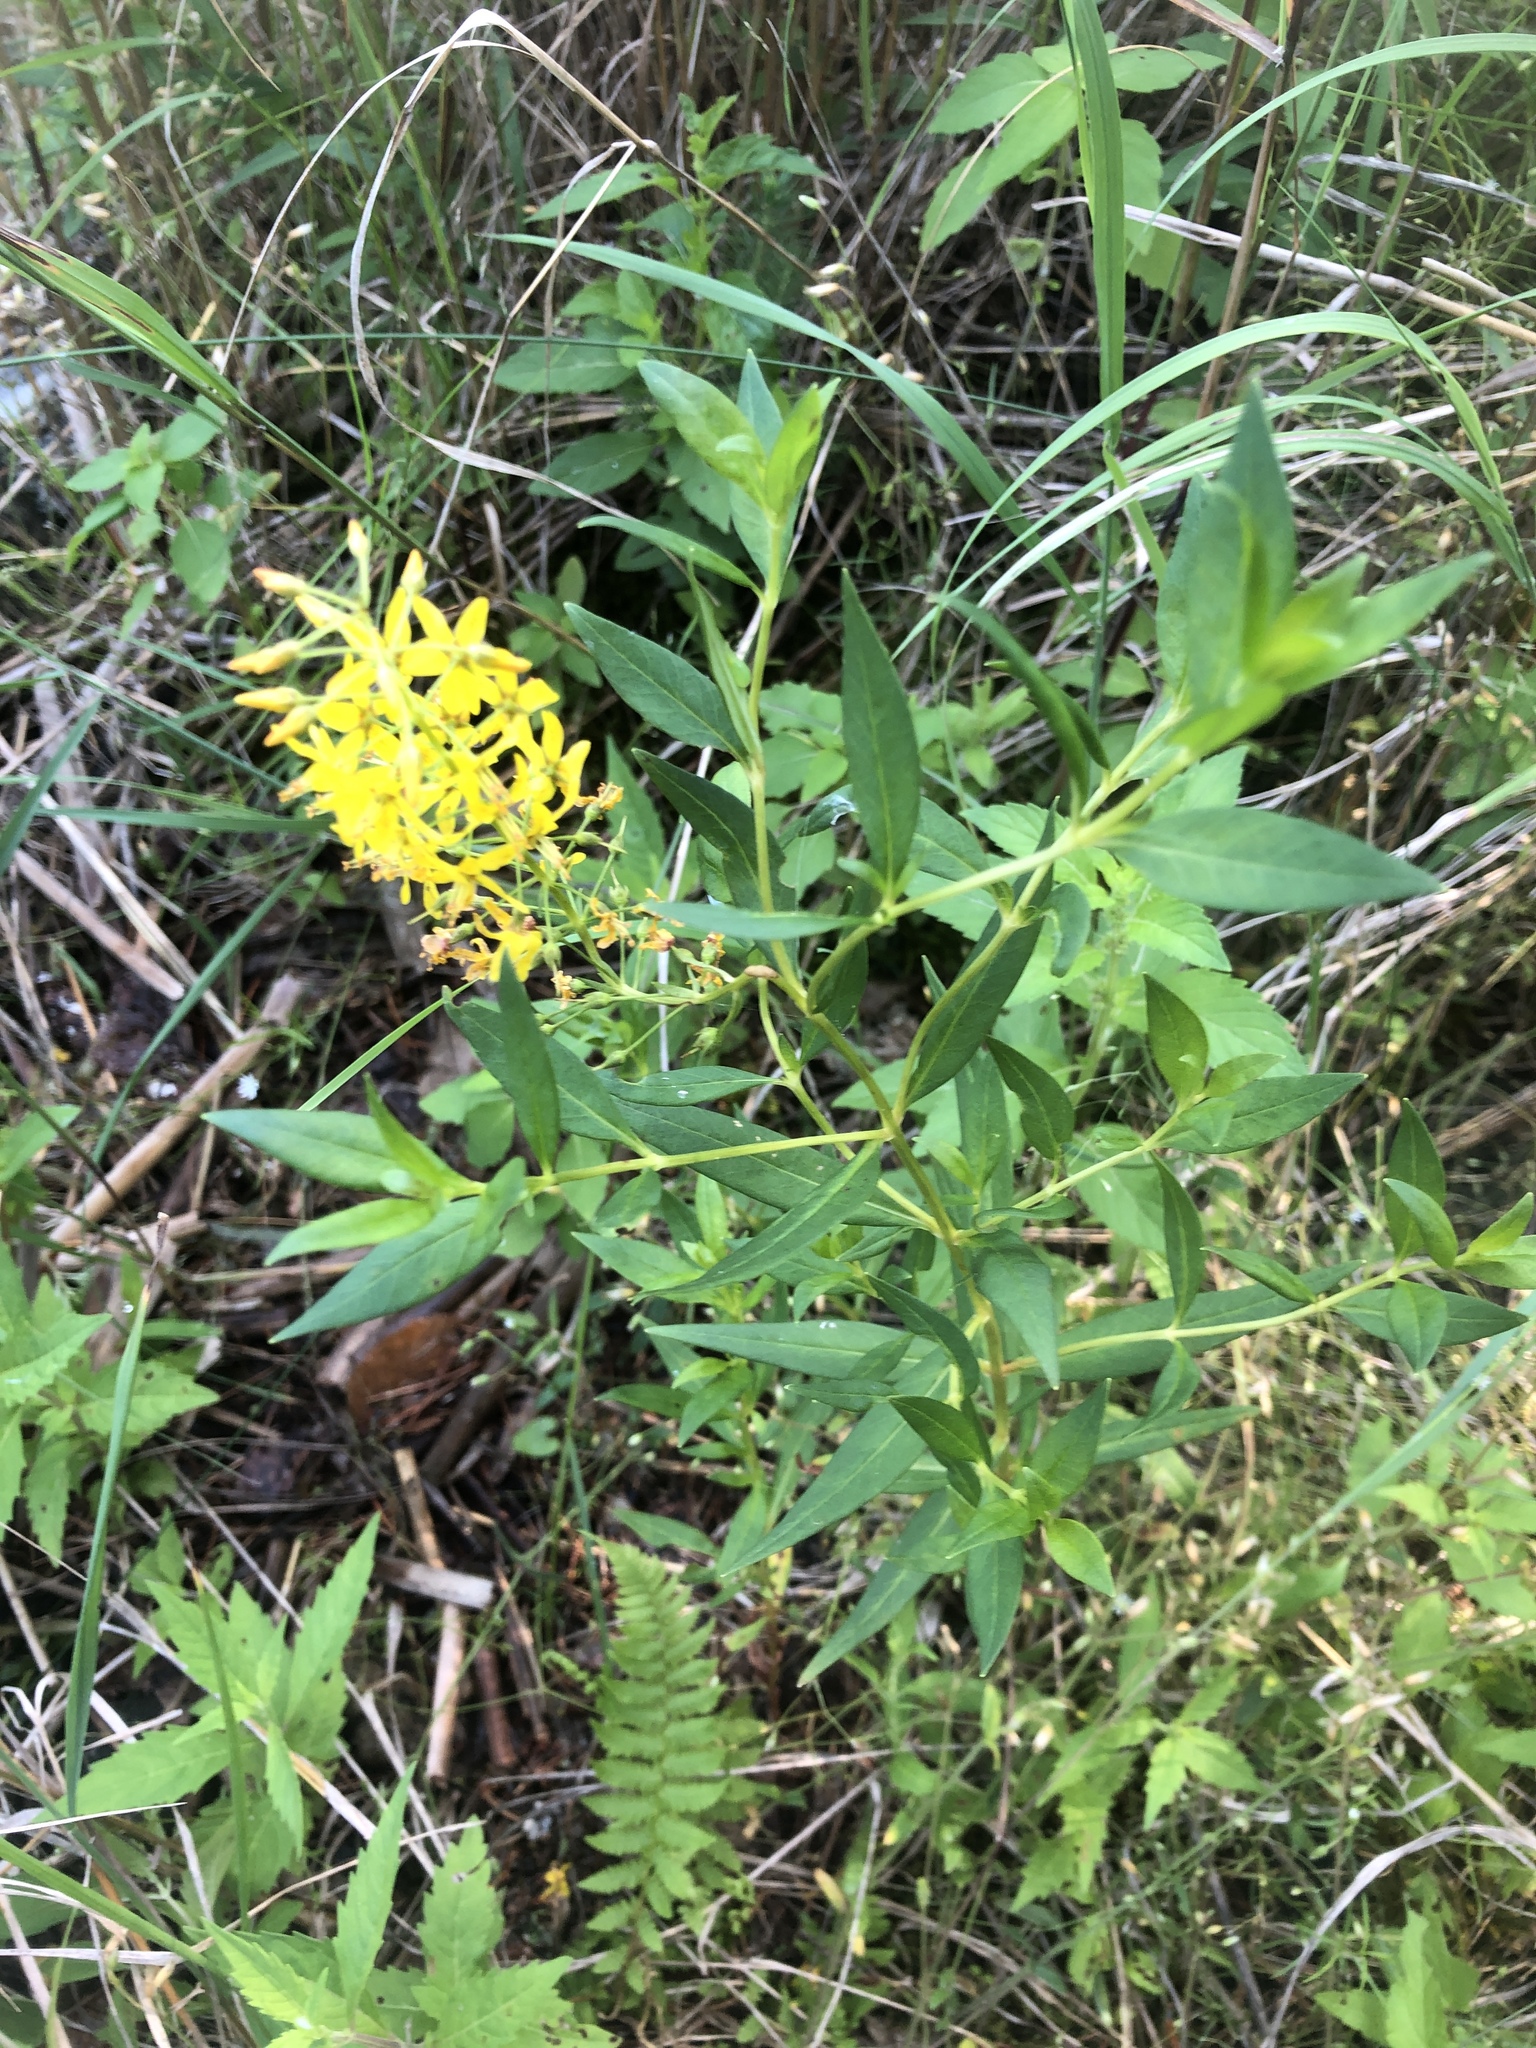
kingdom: Plantae
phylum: Tracheophyta
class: Magnoliopsida
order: Ericales
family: Primulaceae
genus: Lysimachia
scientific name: Lysimachia terrestris
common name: Lake loosestrife
